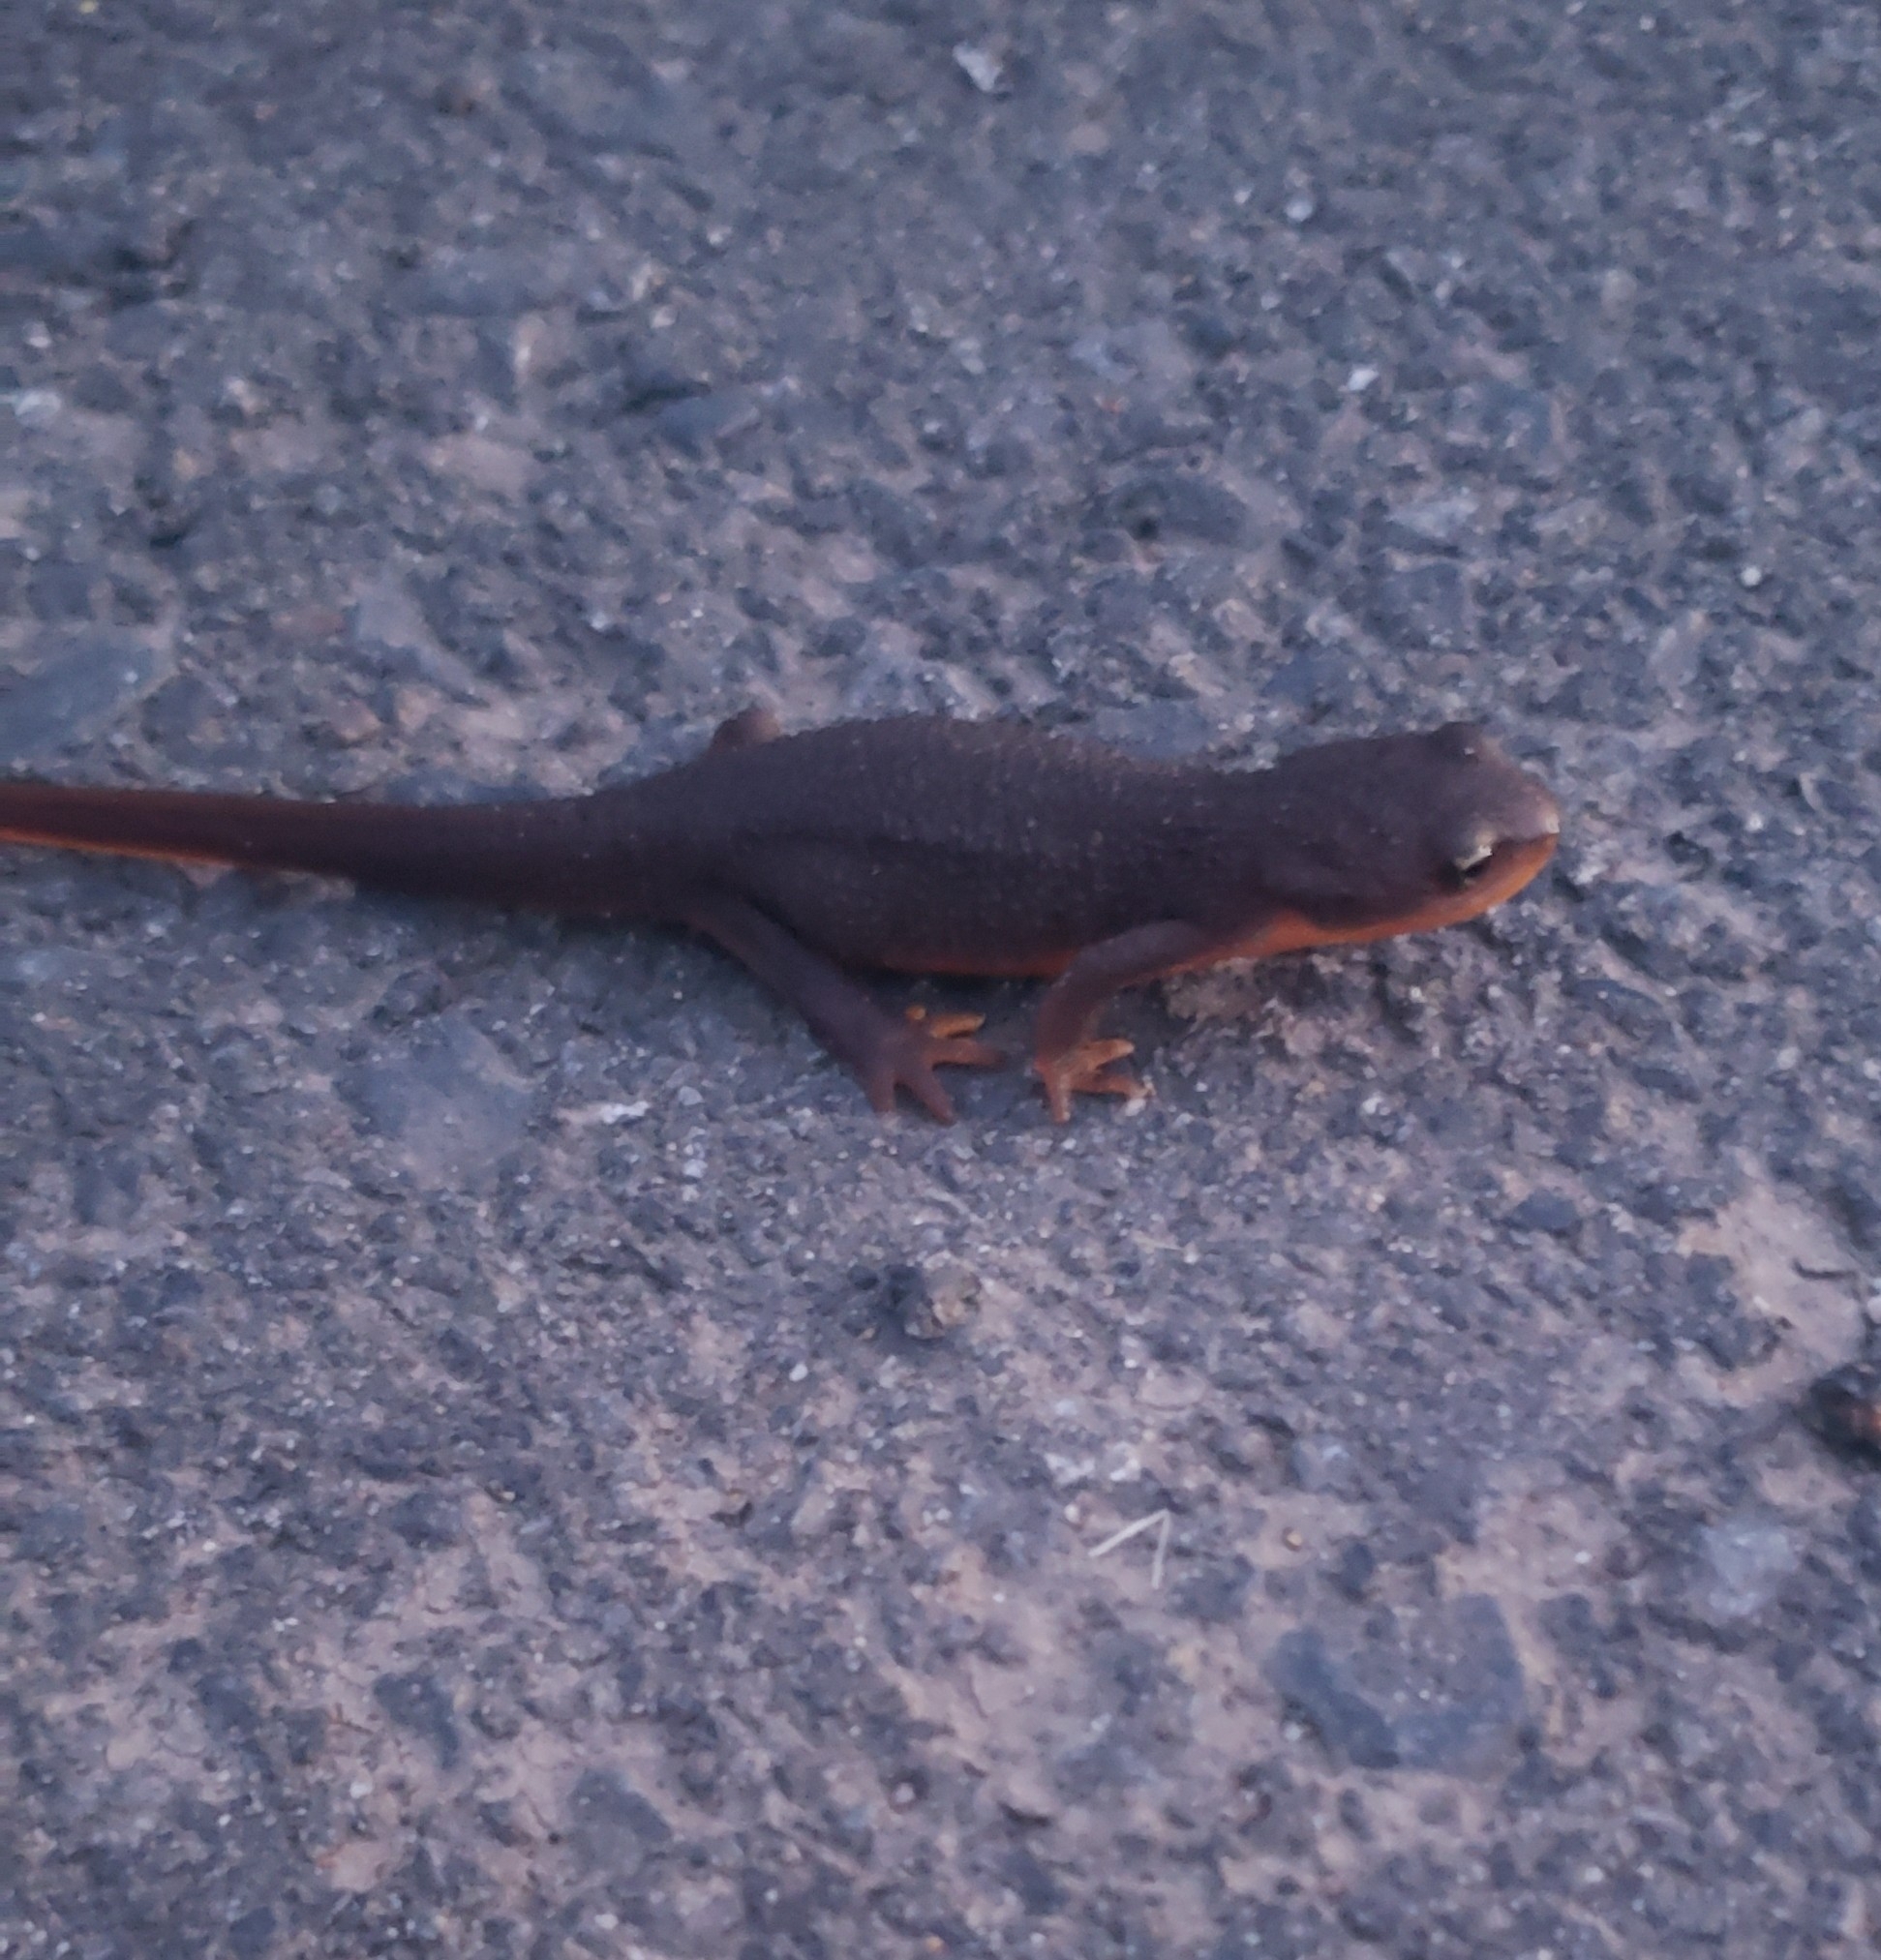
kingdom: Animalia
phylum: Chordata
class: Amphibia
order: Caudata
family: Salamandridae
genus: Taricha
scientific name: Taricha granulosa
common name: Roughskin newt
